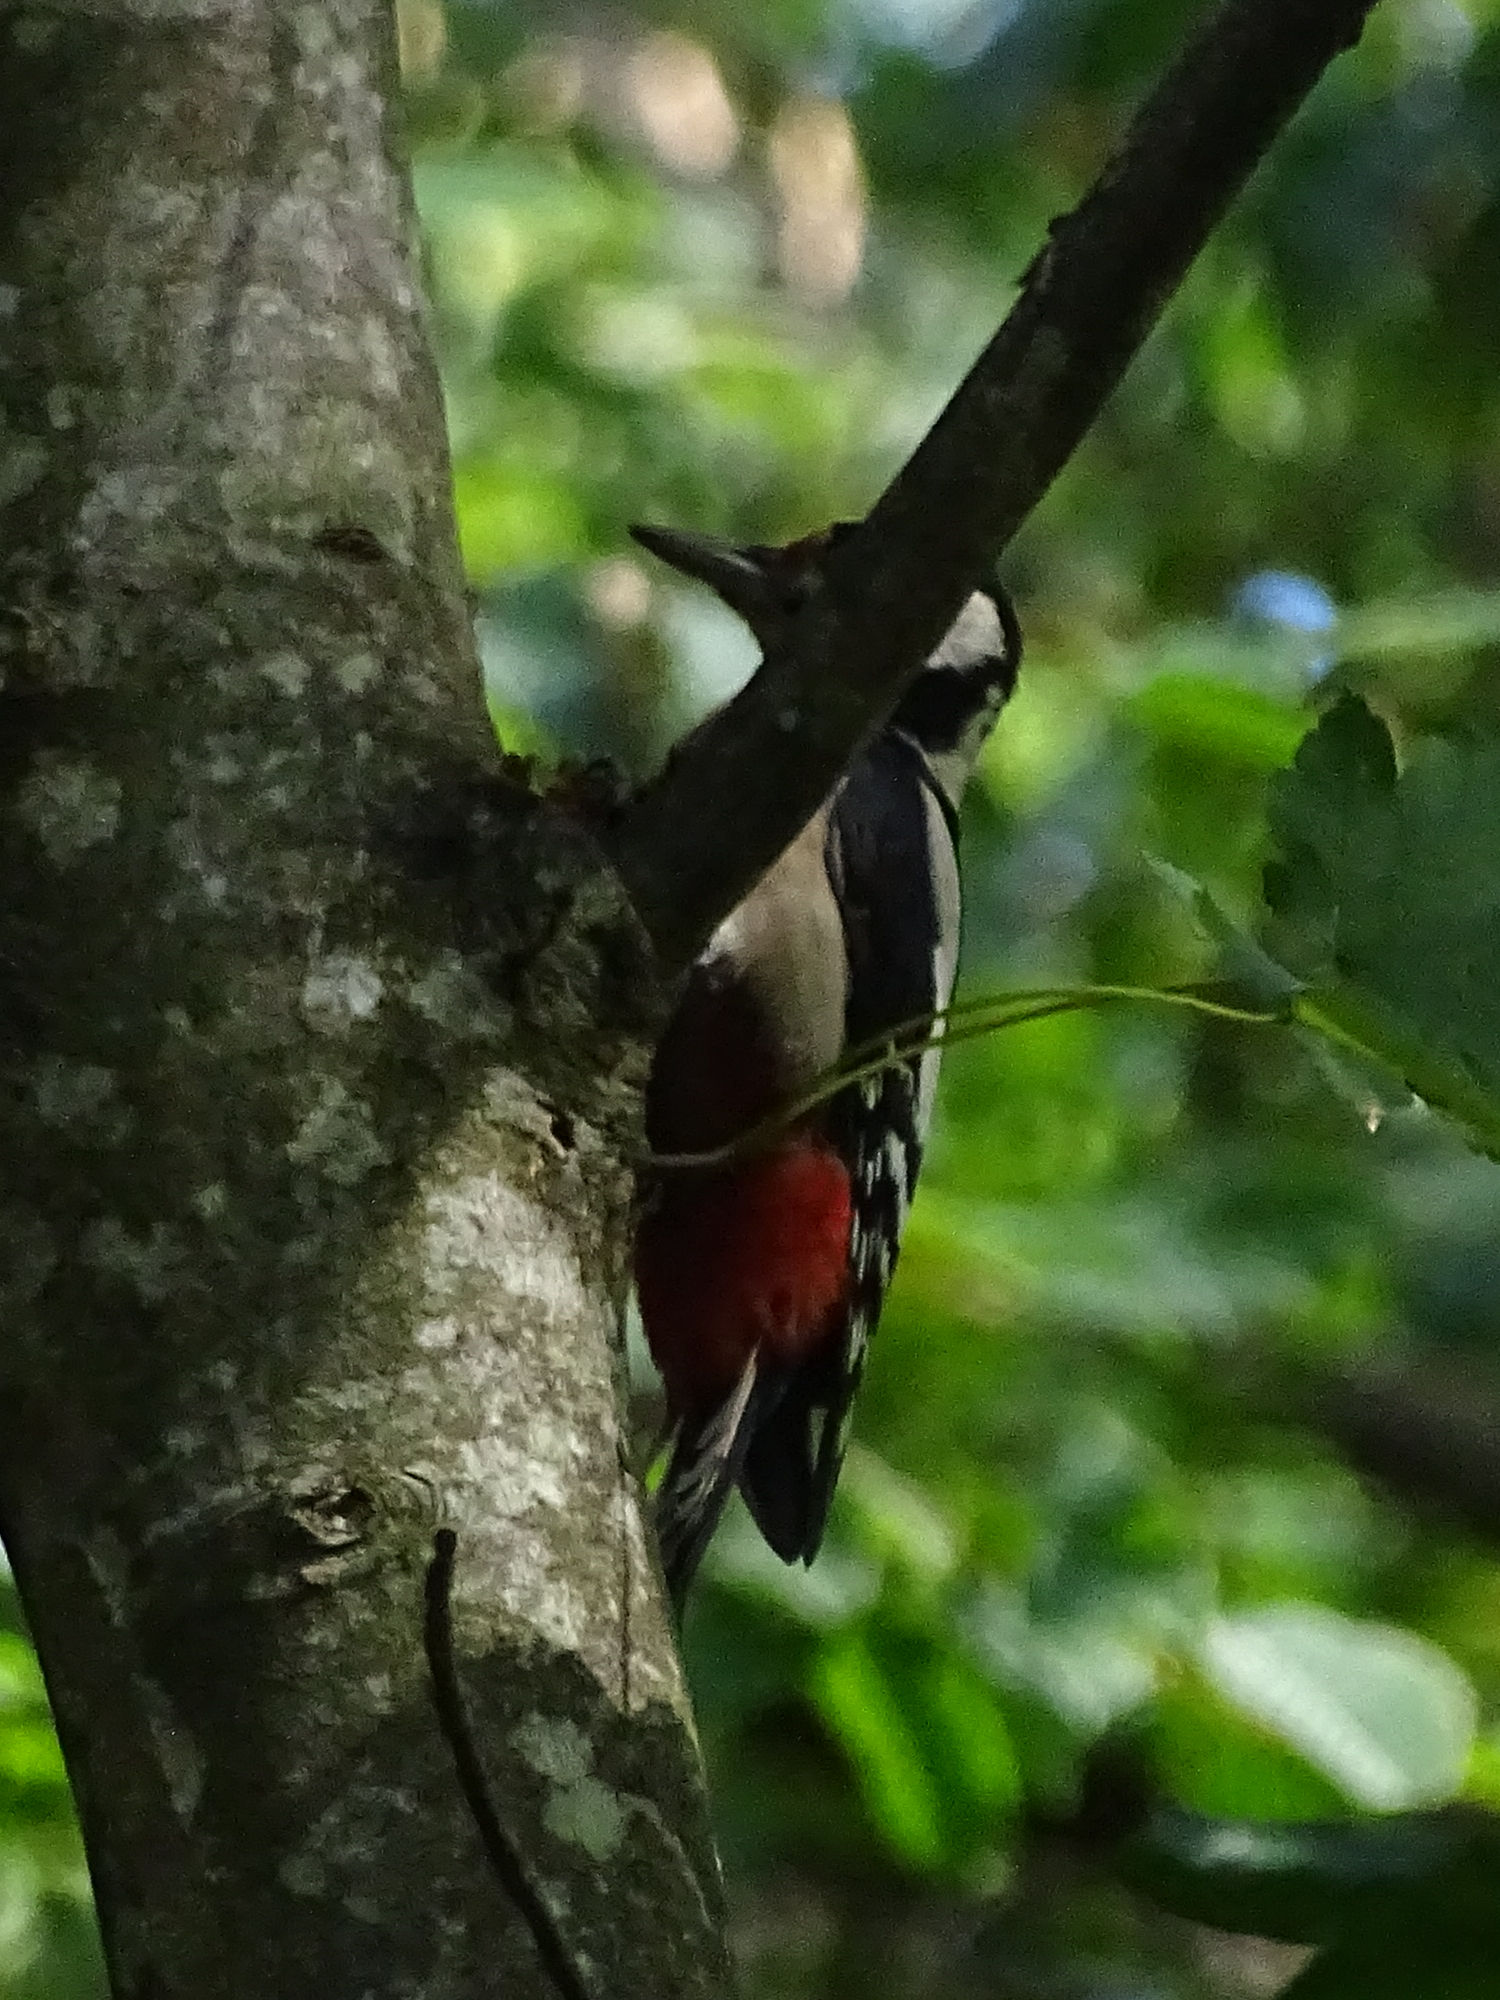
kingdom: Animalia
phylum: Chordata
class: Aves
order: Piciformes
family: Picidae
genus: Dendrocopos
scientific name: Dendrocopos major
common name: Great spotted woodpecker
